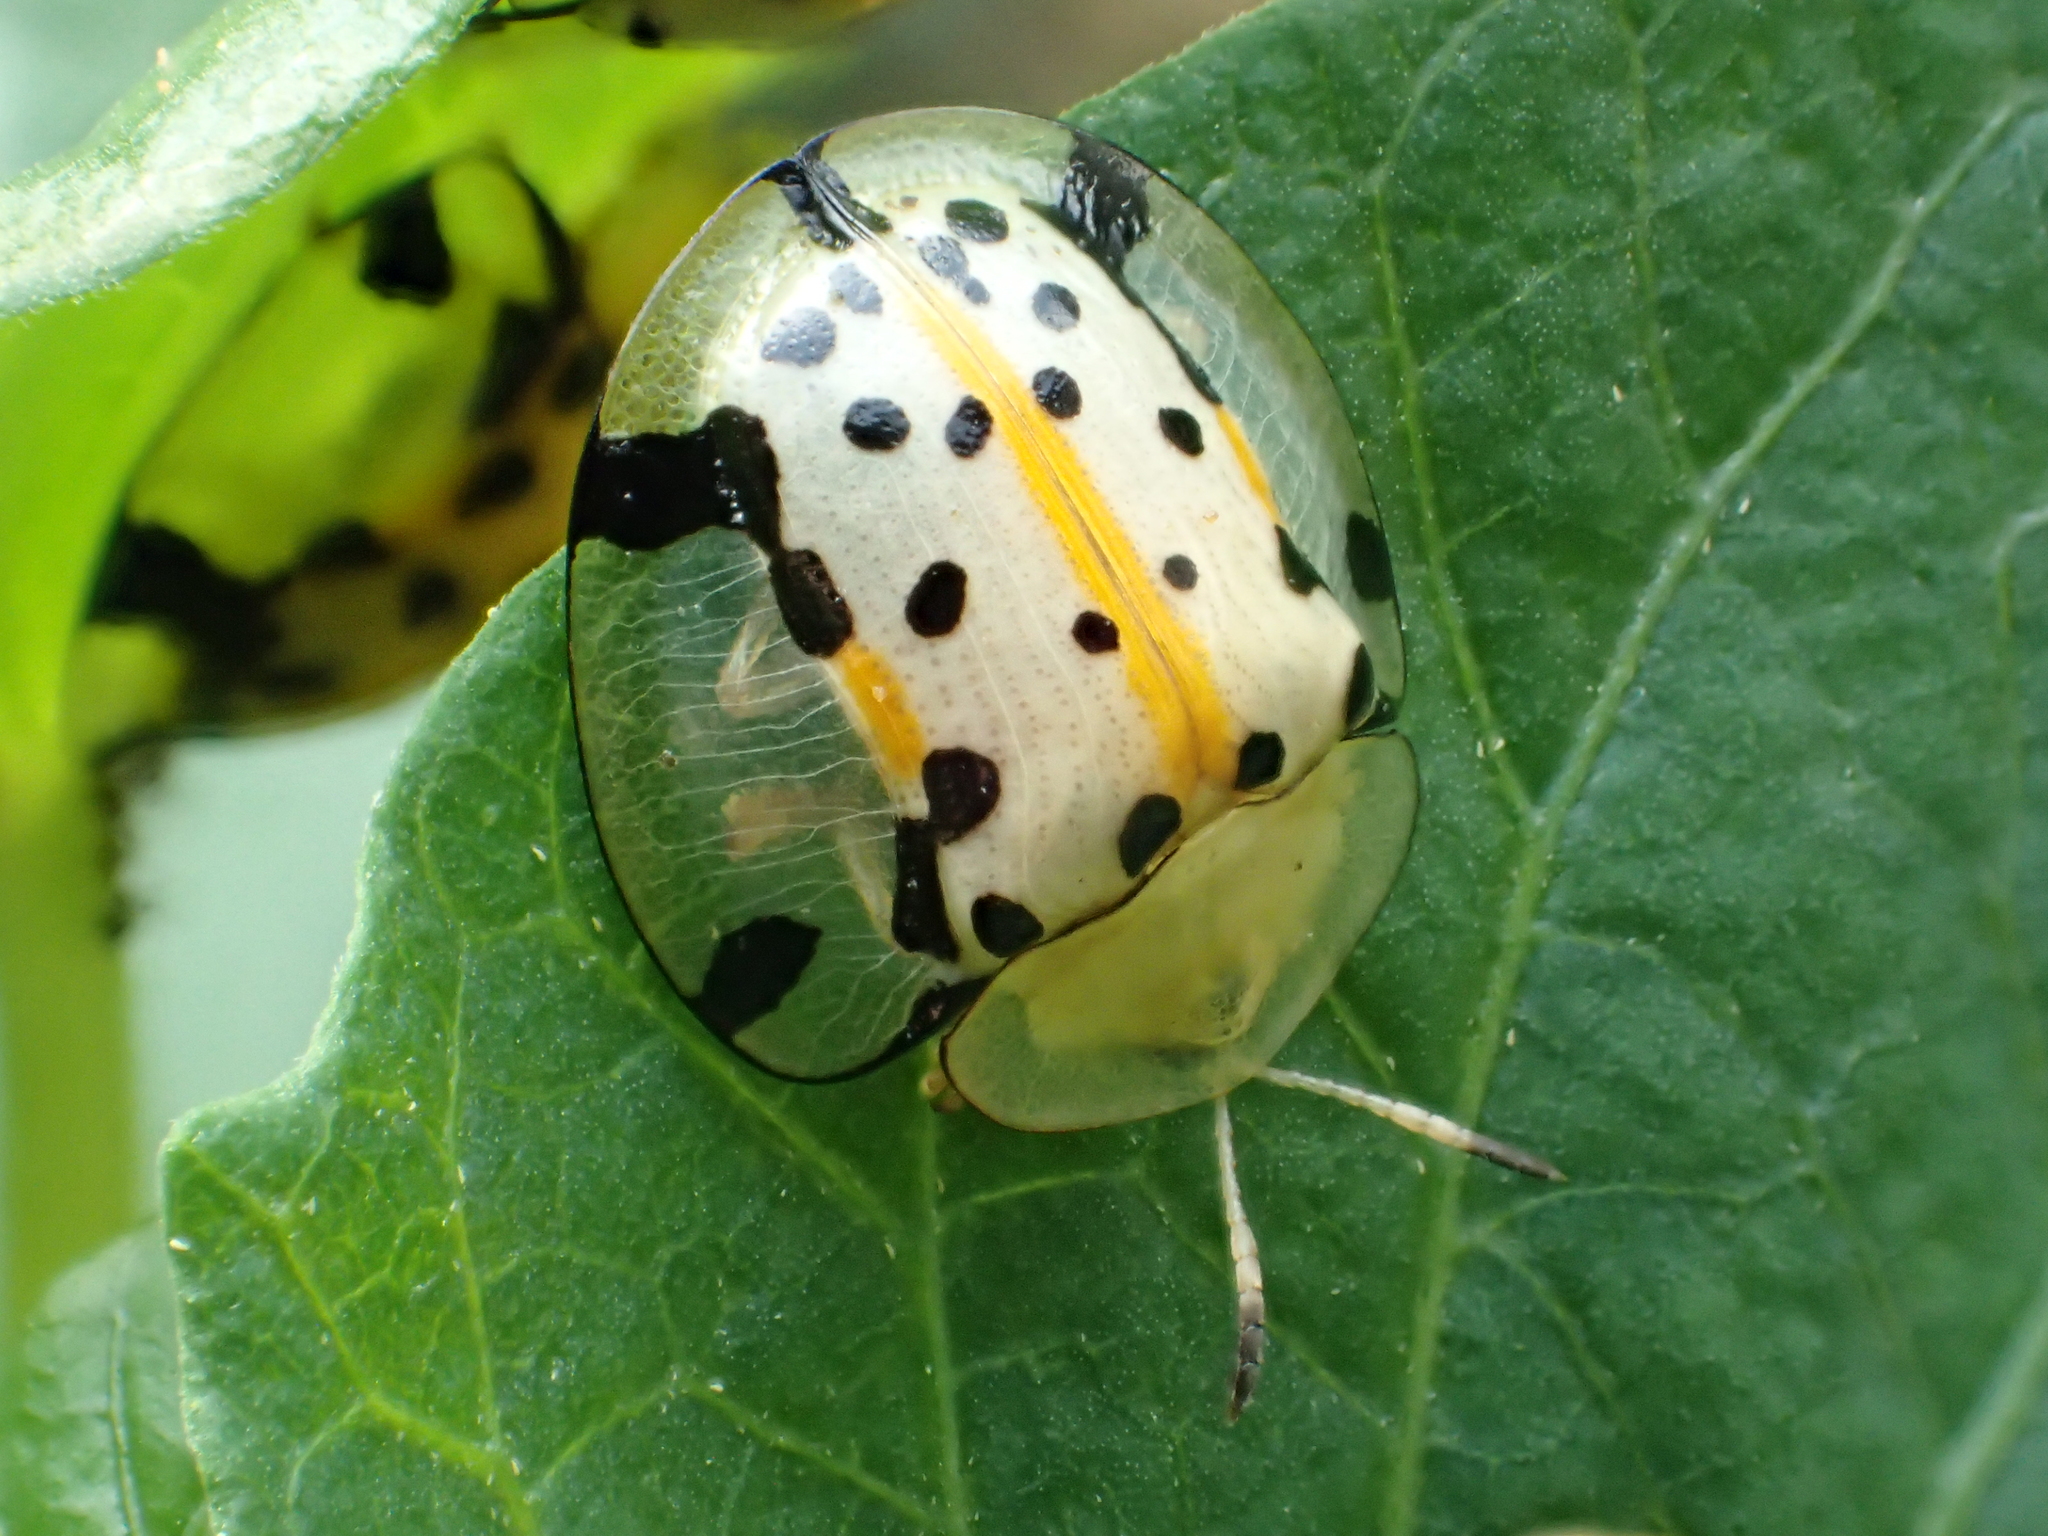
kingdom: Animalia
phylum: Arthropoda
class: Insecta
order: Coleoptera
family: Chrysomelidae
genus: Aspidimorpha
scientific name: Aspidimorpha miliaris
